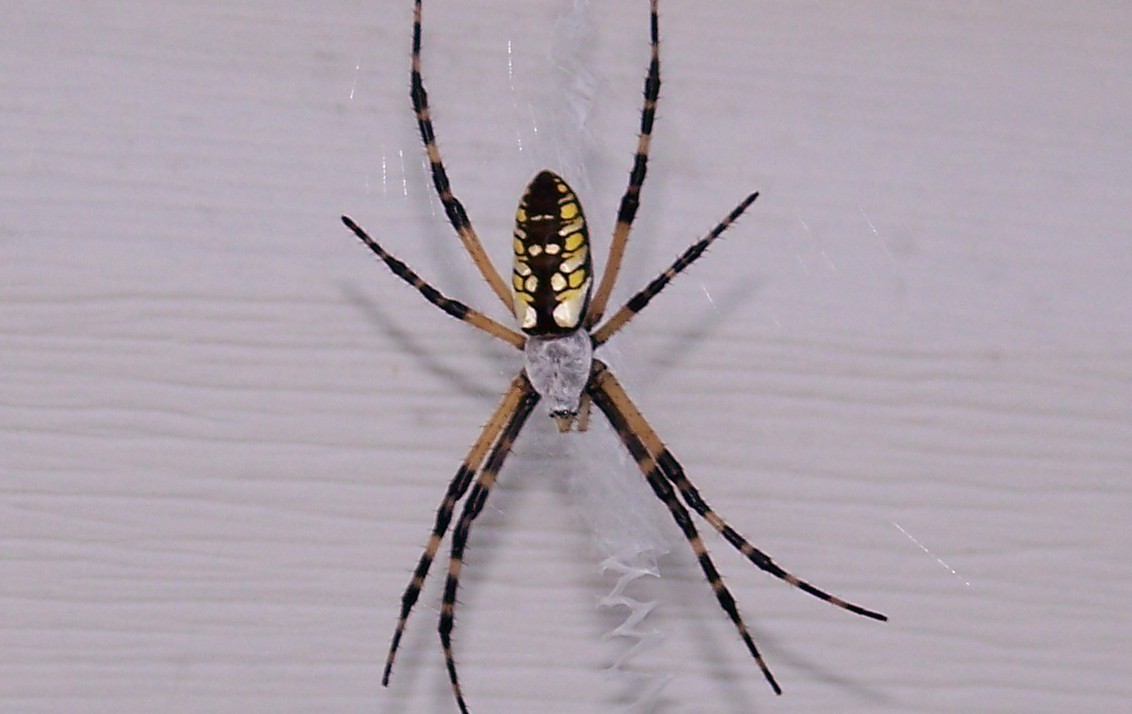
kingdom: Animalia
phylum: Arthropoda
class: Arachnida
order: Araneae
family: Araneidae
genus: Argiope
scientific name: Argiope aurantia
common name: Orb weavers
